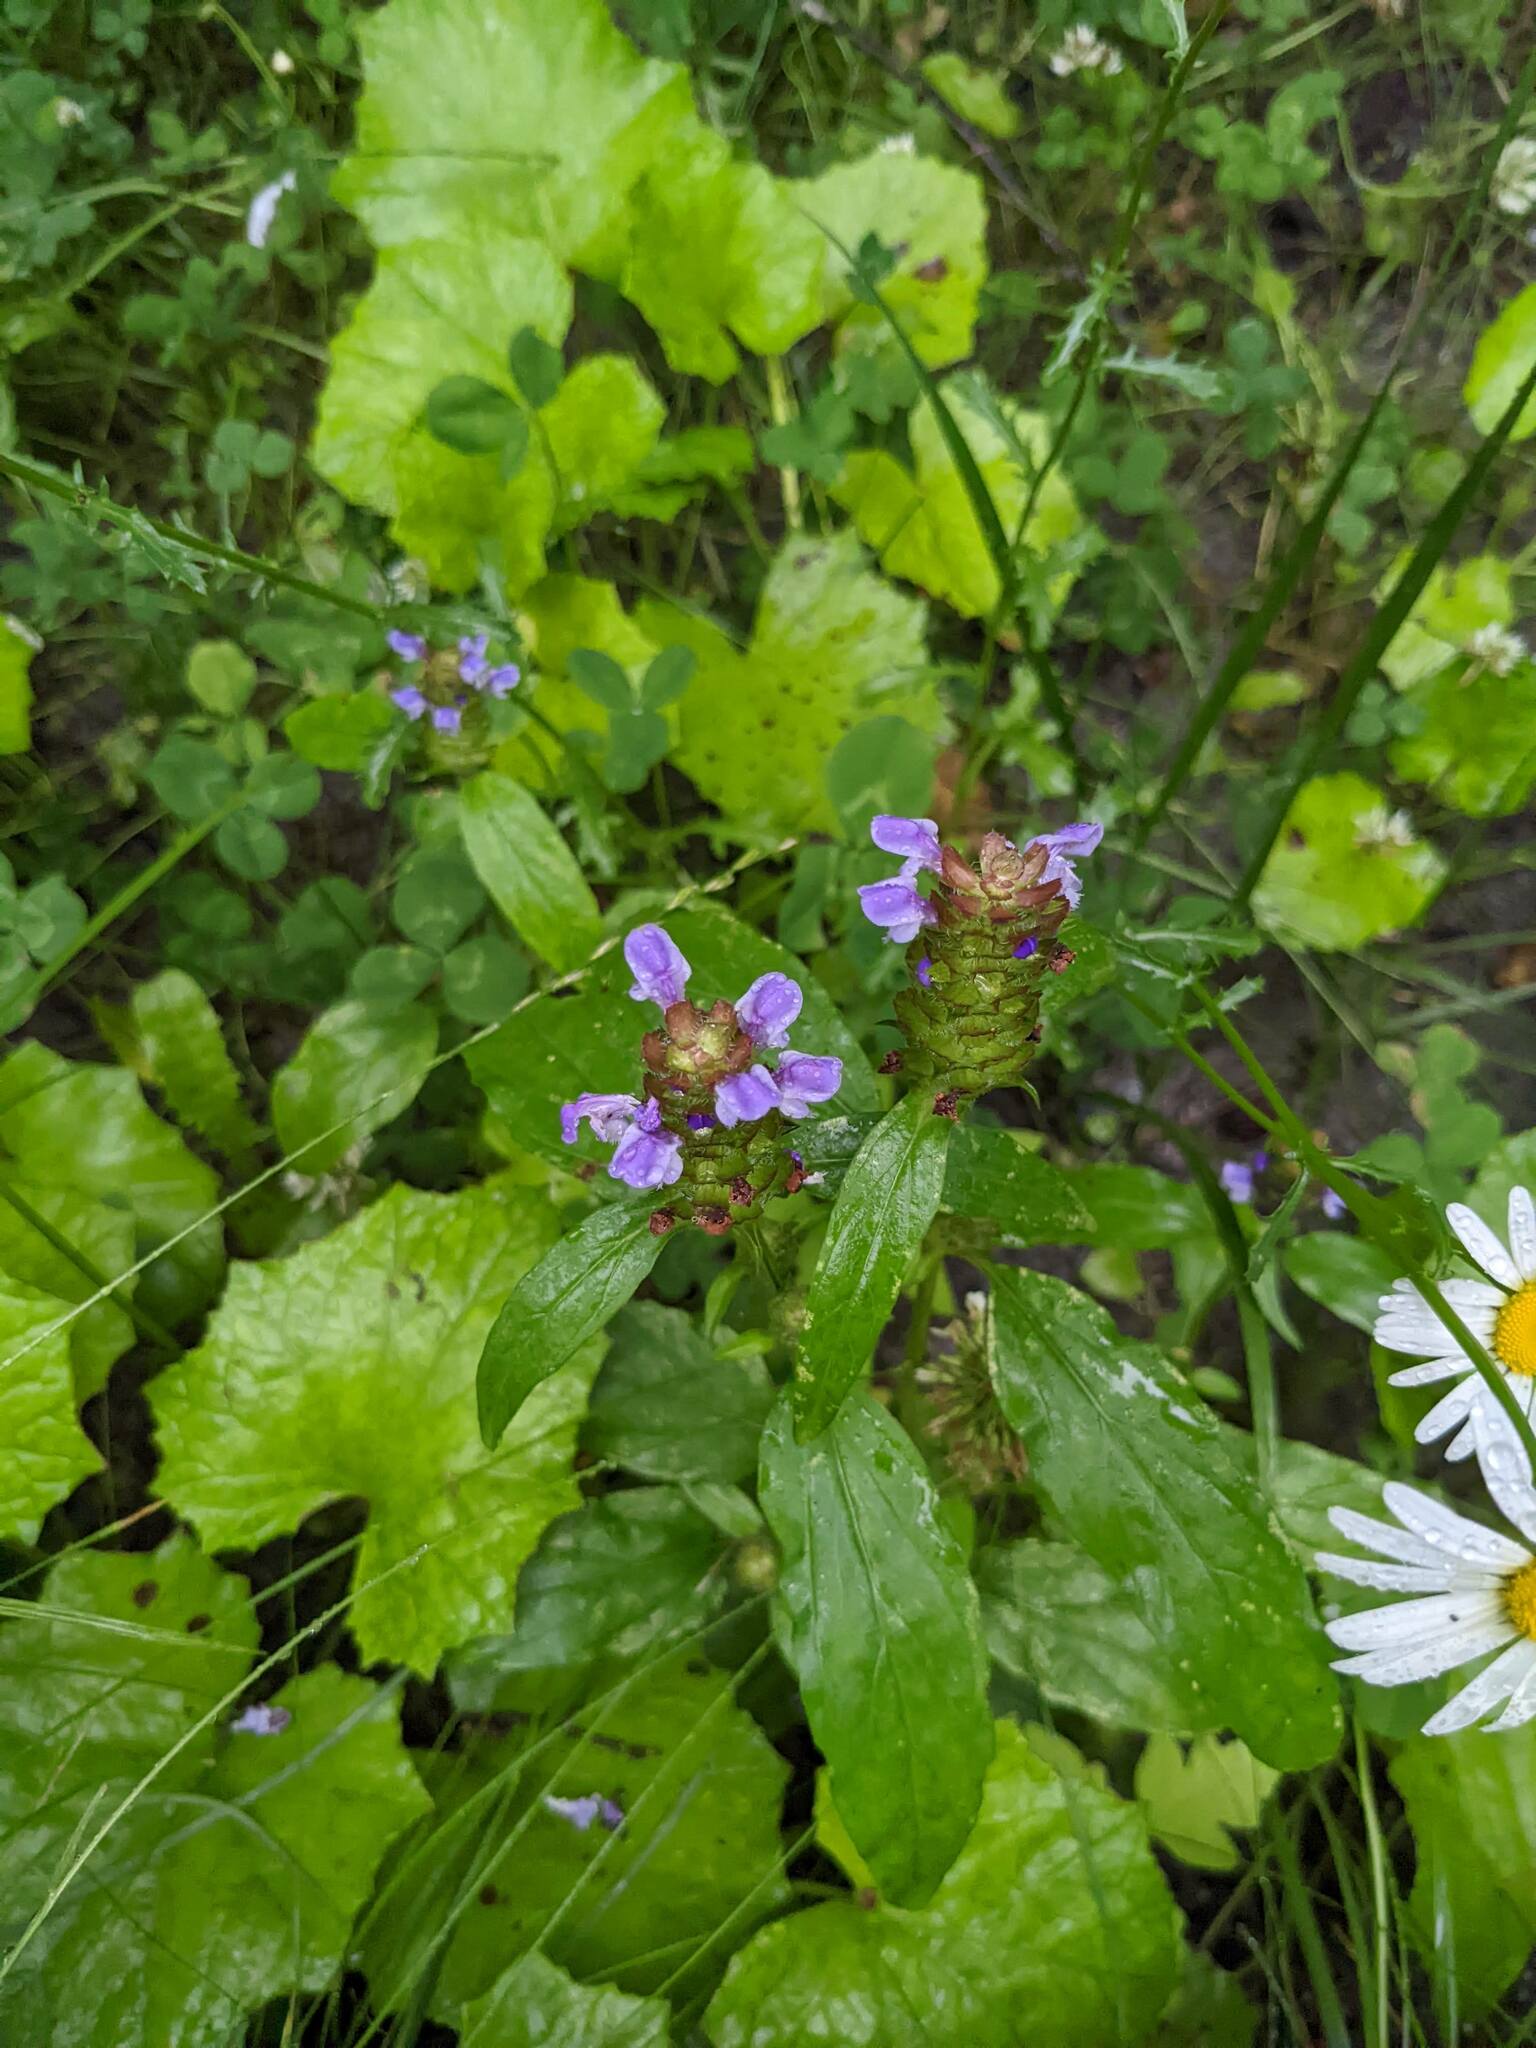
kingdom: Plantae
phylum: Tracheophyta
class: Magnoliopsida
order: Lamiales
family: Lamiaceae
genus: Prunella
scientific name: Prunella vulgaris
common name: Heal-all
